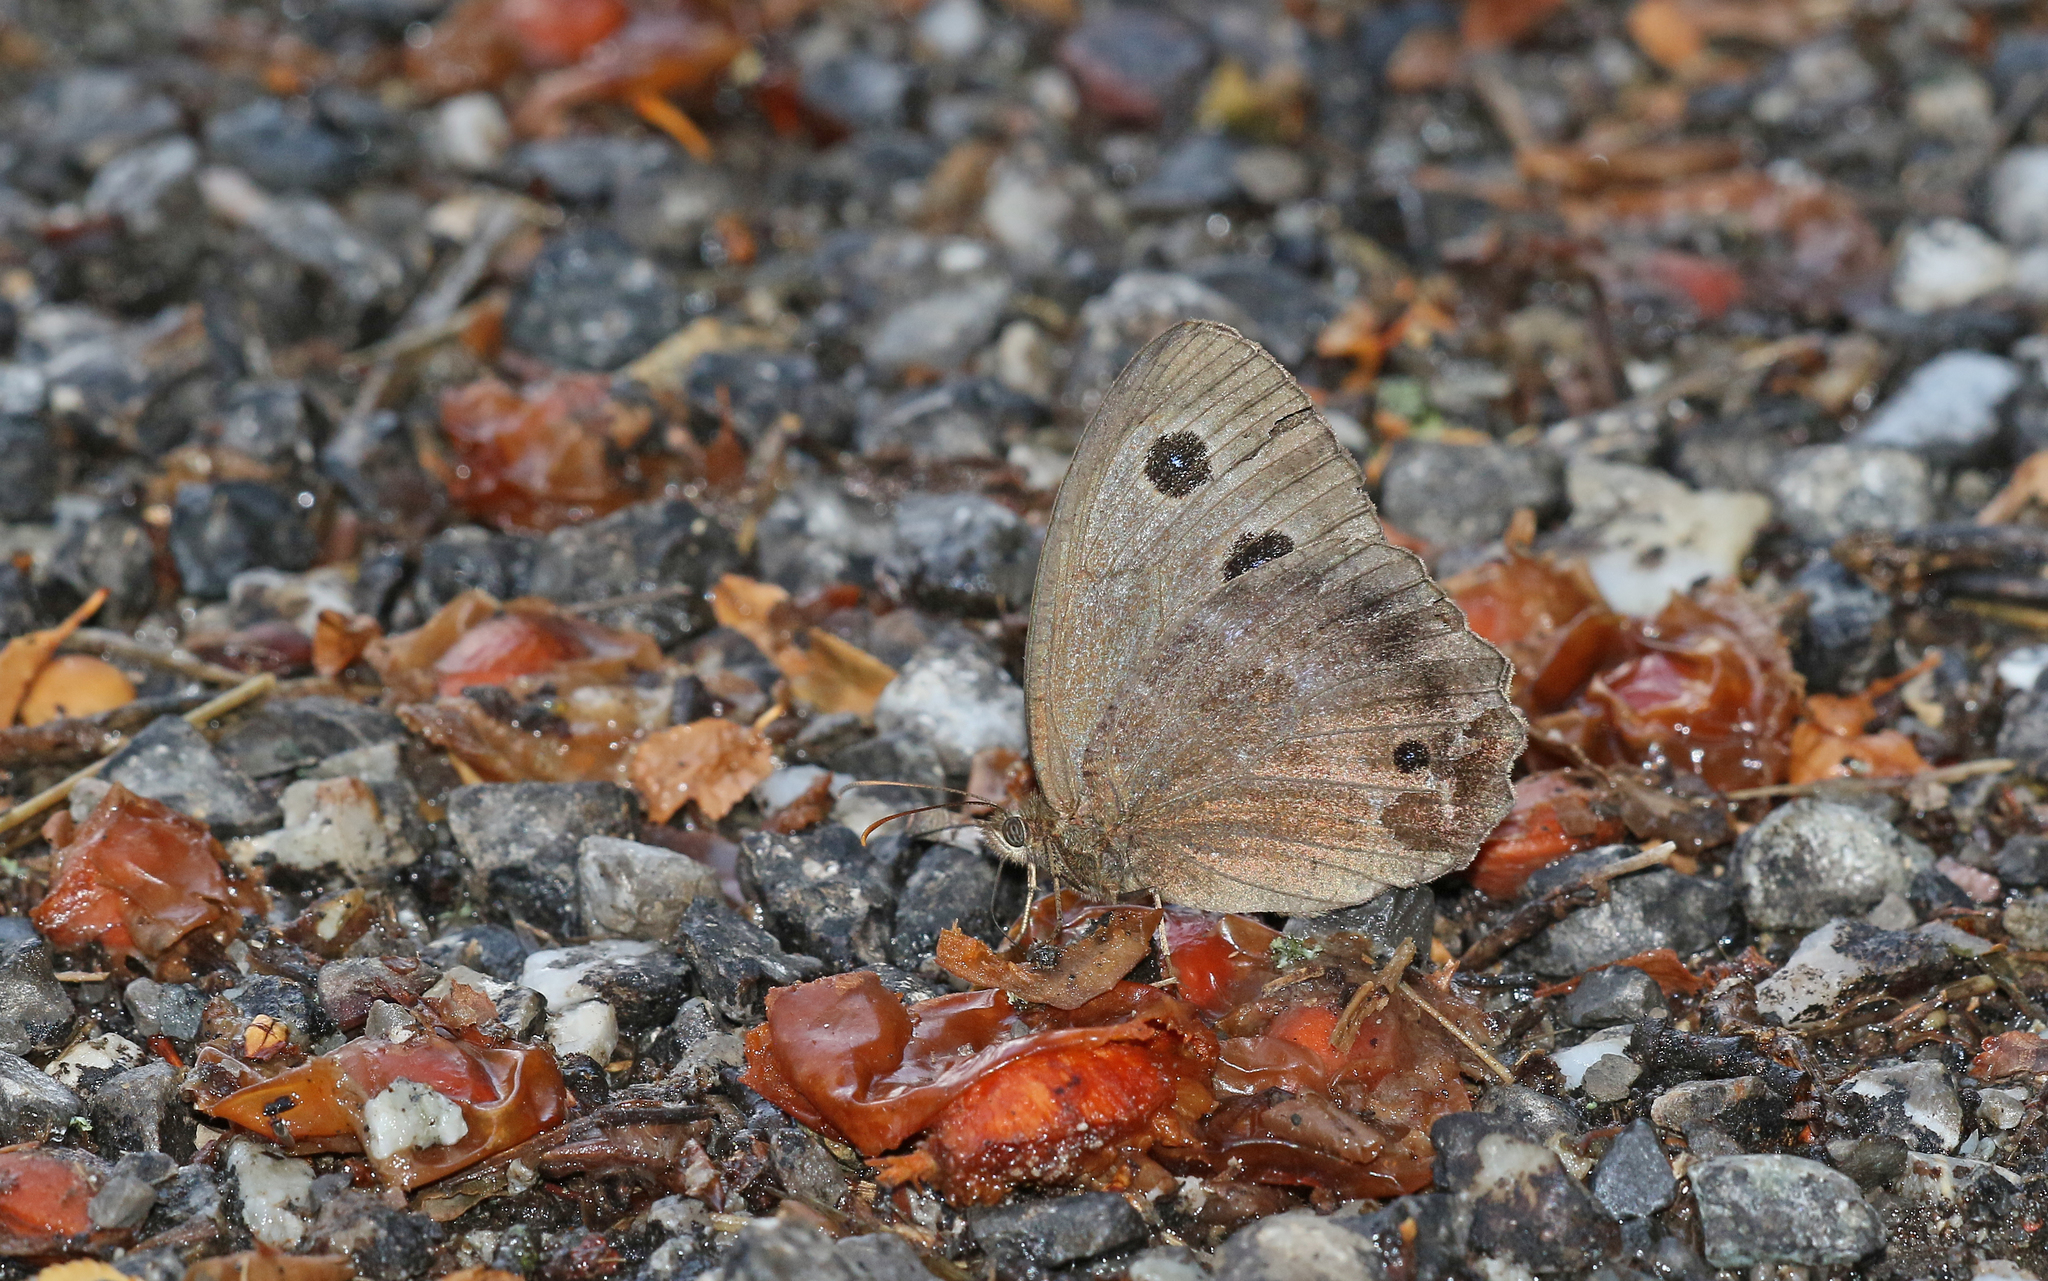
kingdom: Animalia
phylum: Arthropoda
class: Insecta
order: Lepidoptera
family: Nymphalidae
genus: Minois
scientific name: Minois dryas
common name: Dryad
